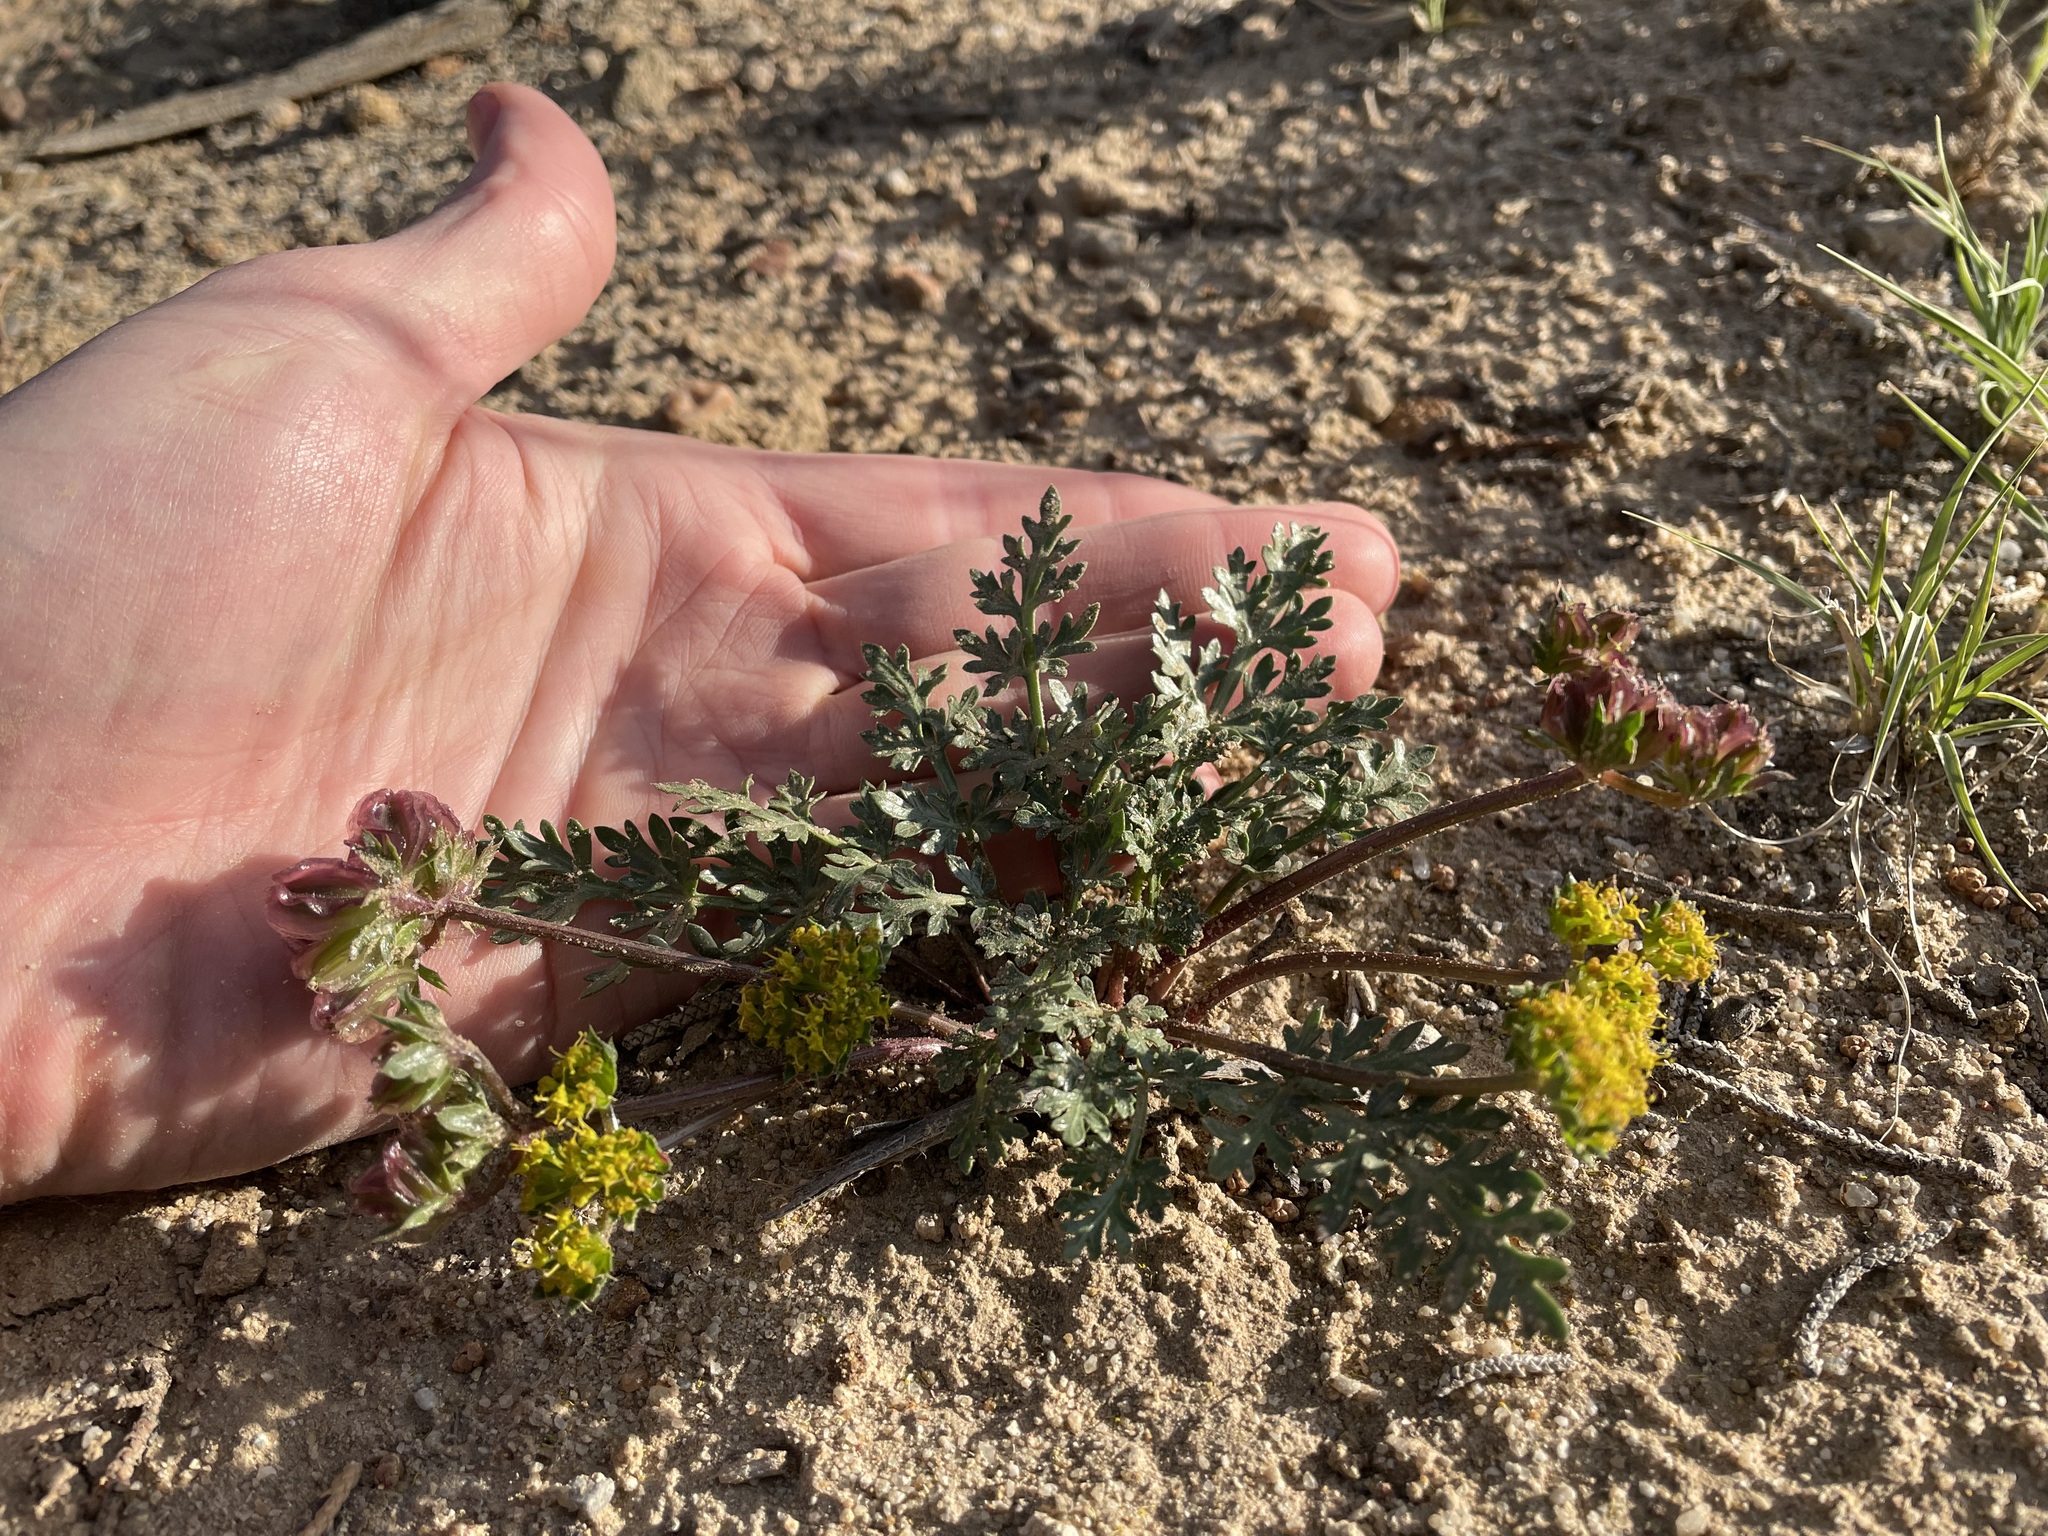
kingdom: Plantae
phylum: Tracheophyta
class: Magnoliopsida
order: Apiales
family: Apiaceae
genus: Cymopterus
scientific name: Cymopterus glomeratus
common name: Plains spring parsley
